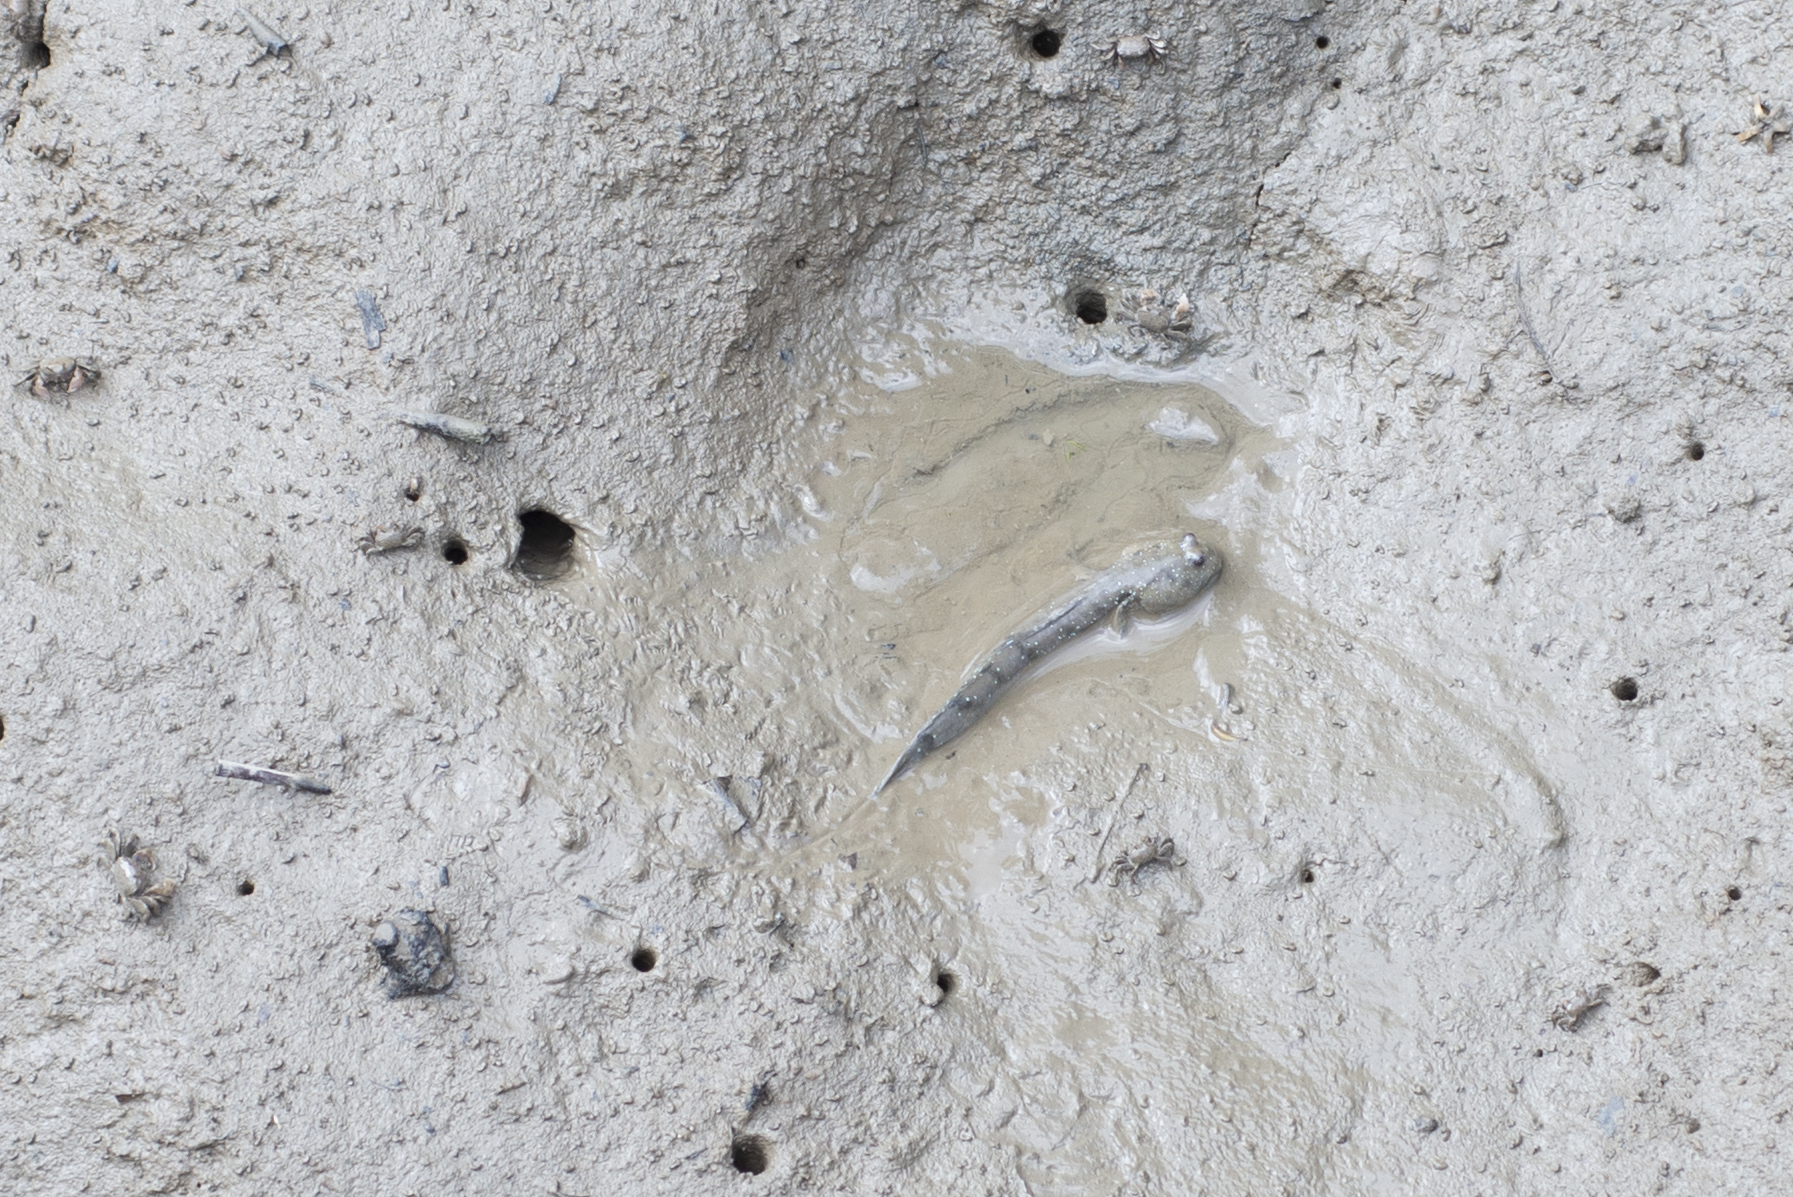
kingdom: Animalia
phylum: Chordata
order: Perciformes
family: Gobiidae
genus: Boleophthalmus
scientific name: Boleophthalmus pectinirostris
